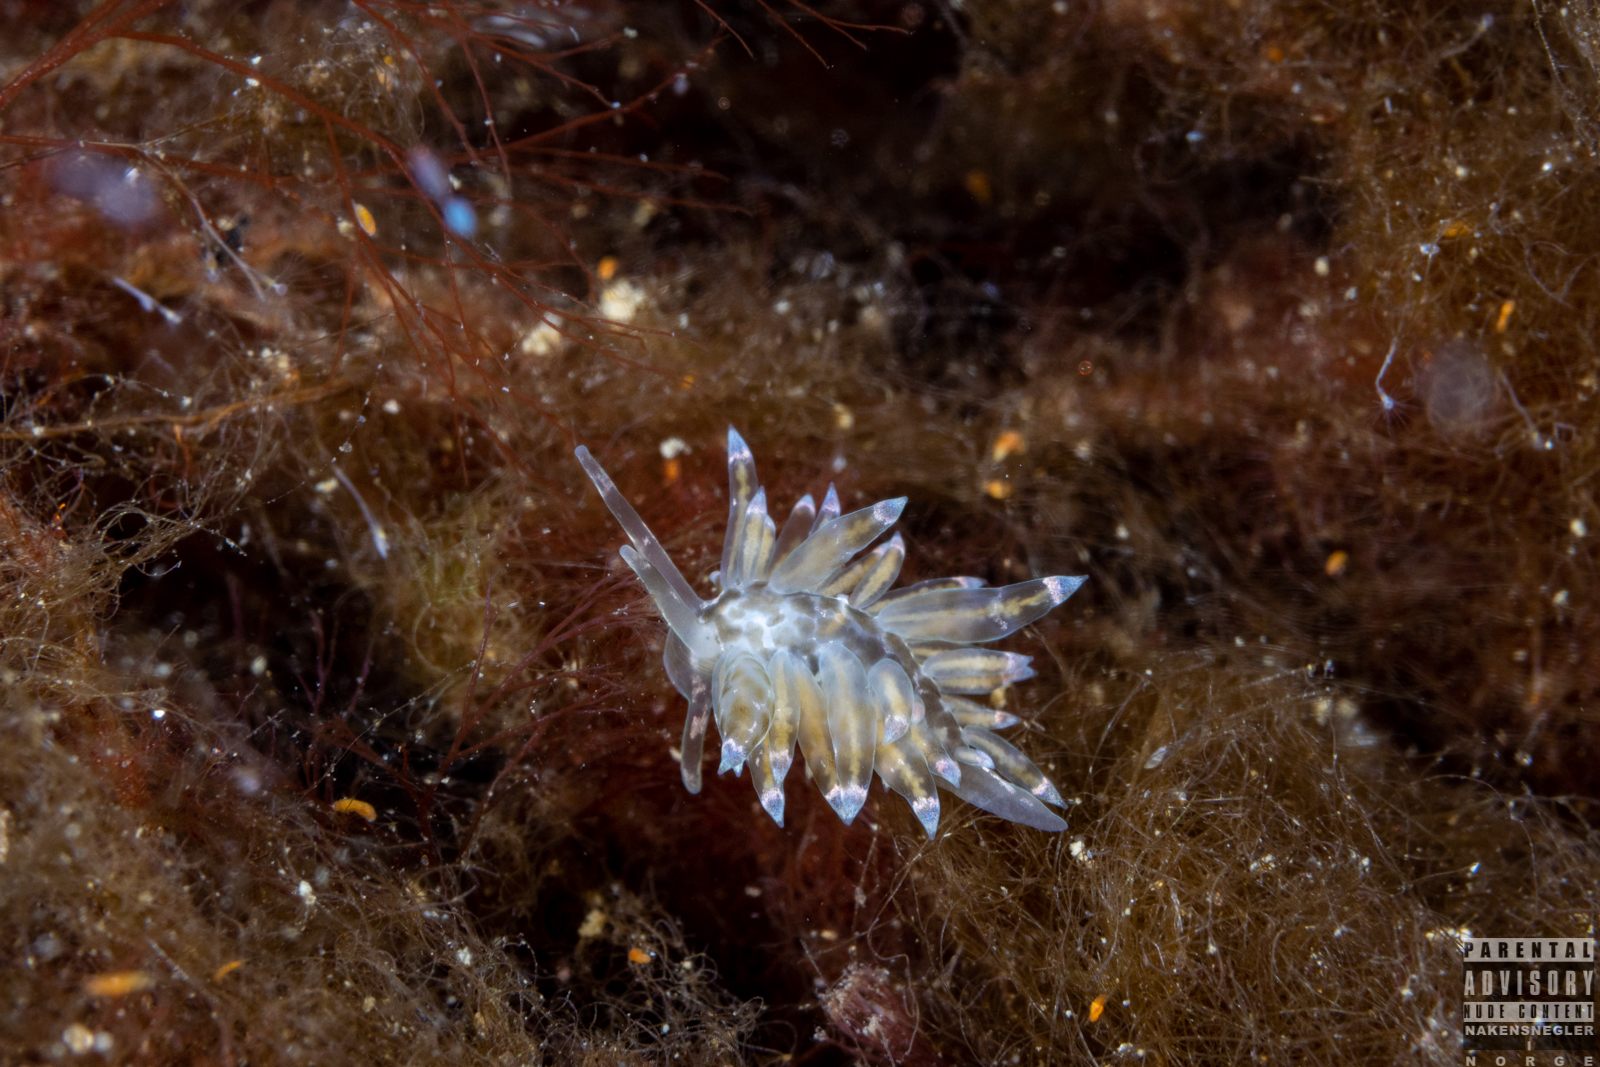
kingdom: Animalia
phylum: Mollusca
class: Gastropoda
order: Nudibranchia
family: Eubranchidae
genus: Amphorina
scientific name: Amphorina viriola
